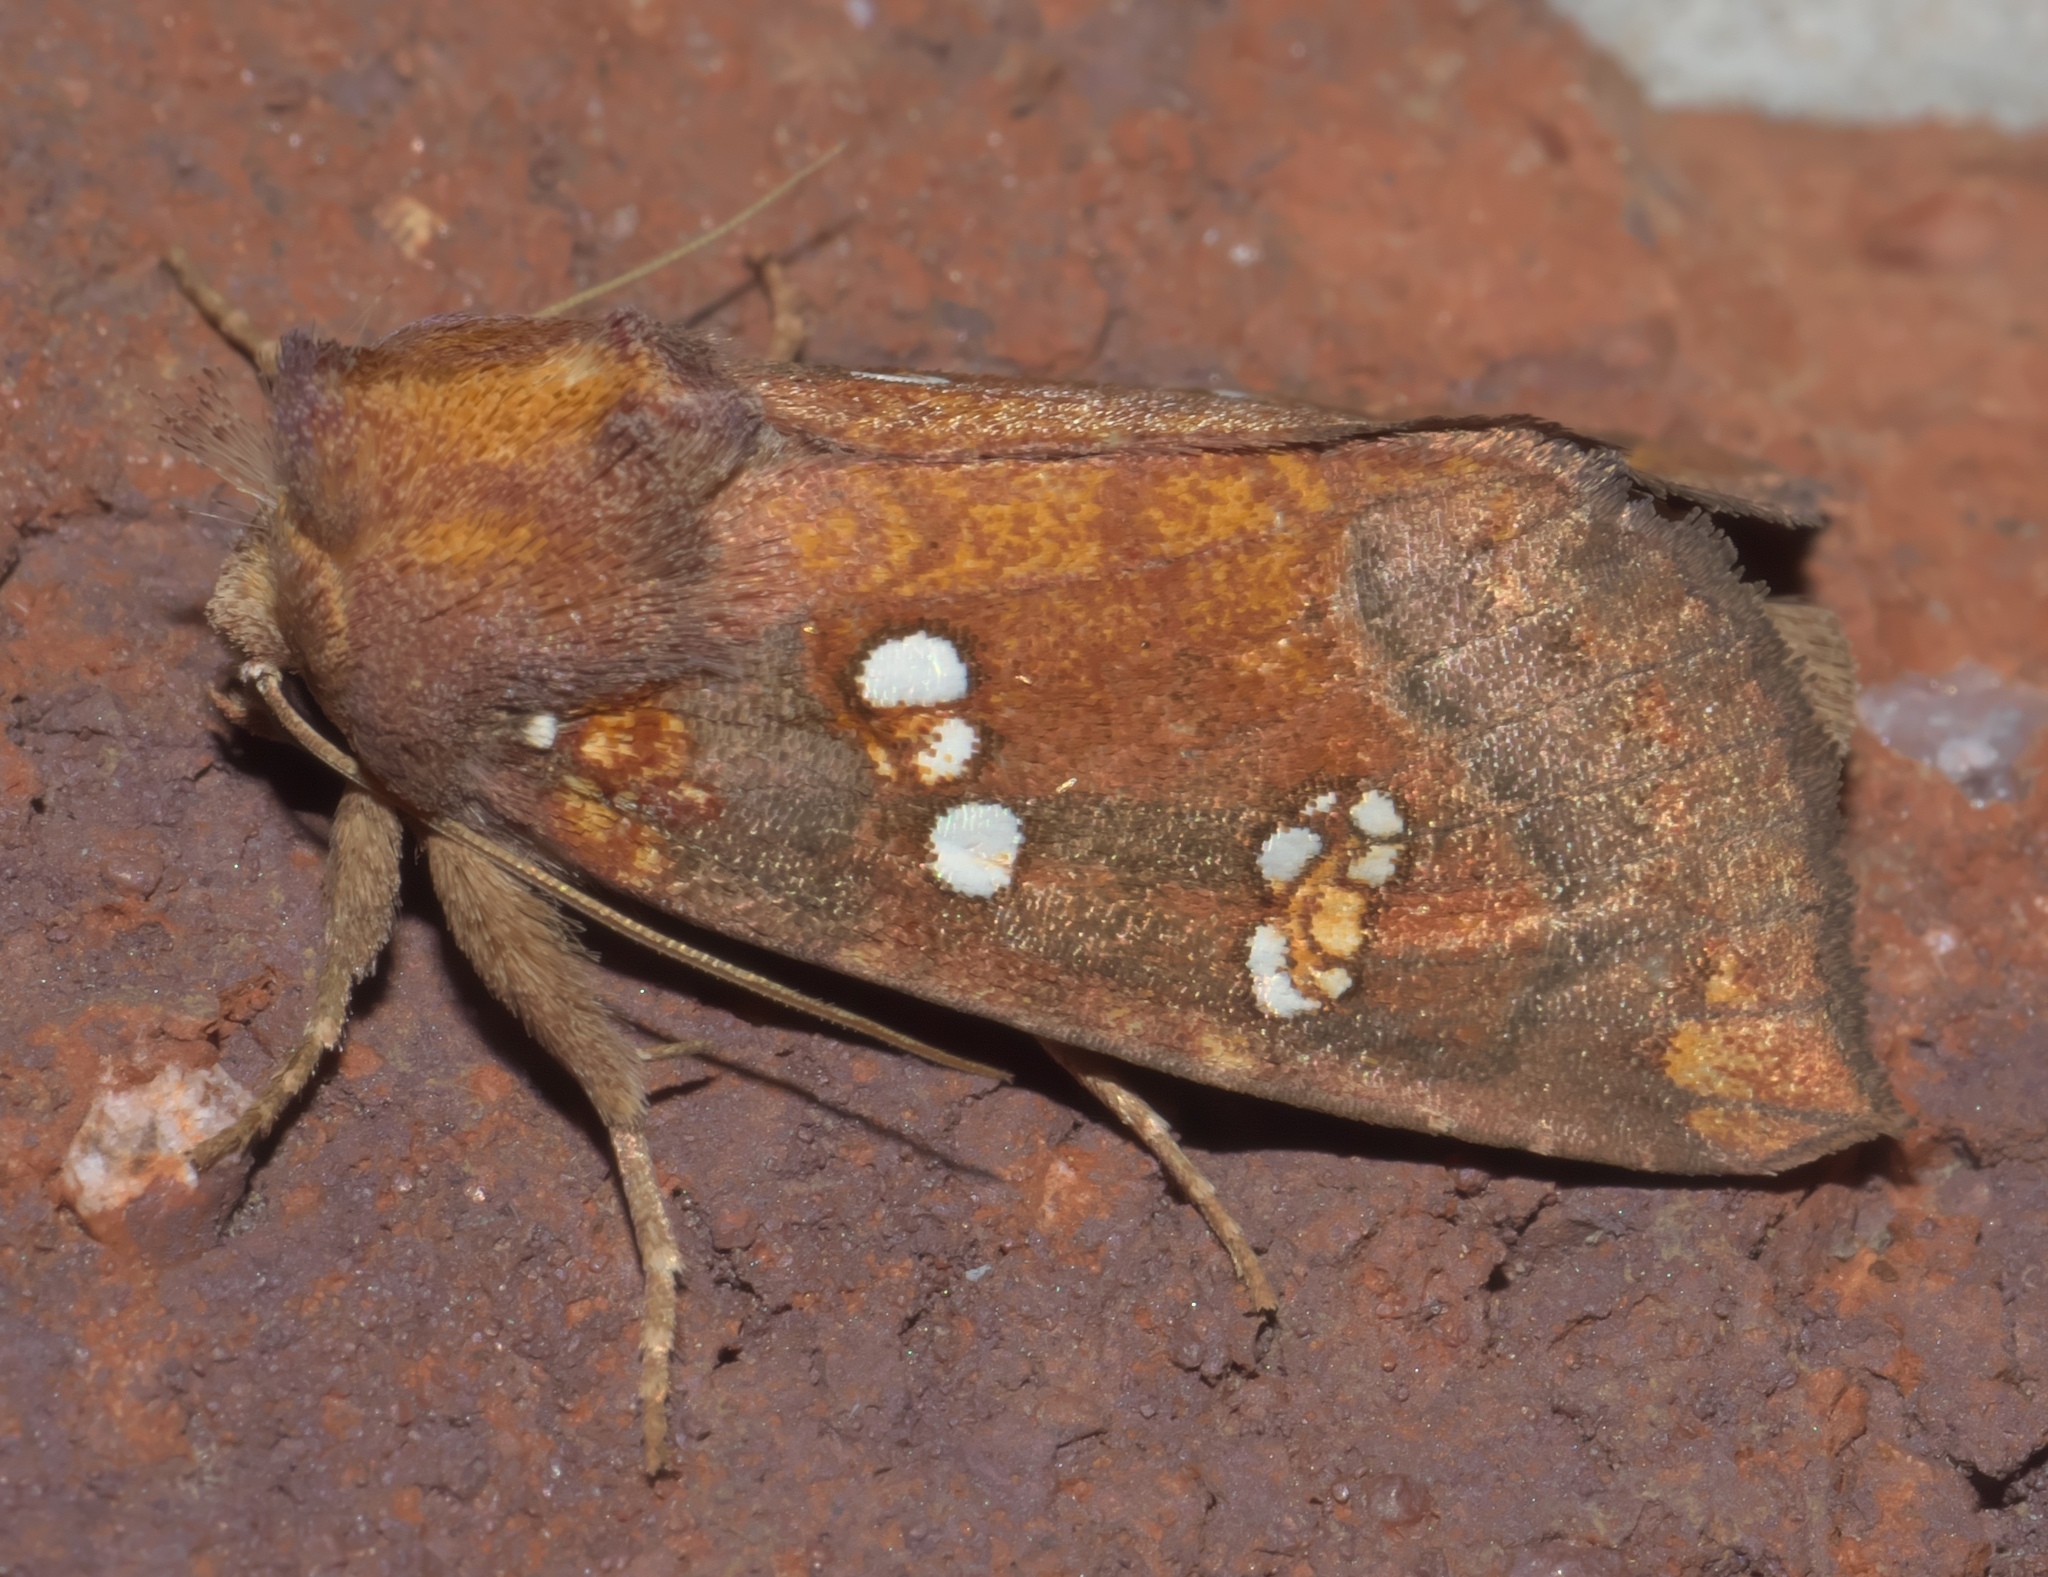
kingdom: Animalia
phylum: Arthropoda
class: Insecta
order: Lepidoptera
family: Noctuidae
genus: Papaipema
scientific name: Papaipema baptisiae
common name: Wild indigo borer moth
